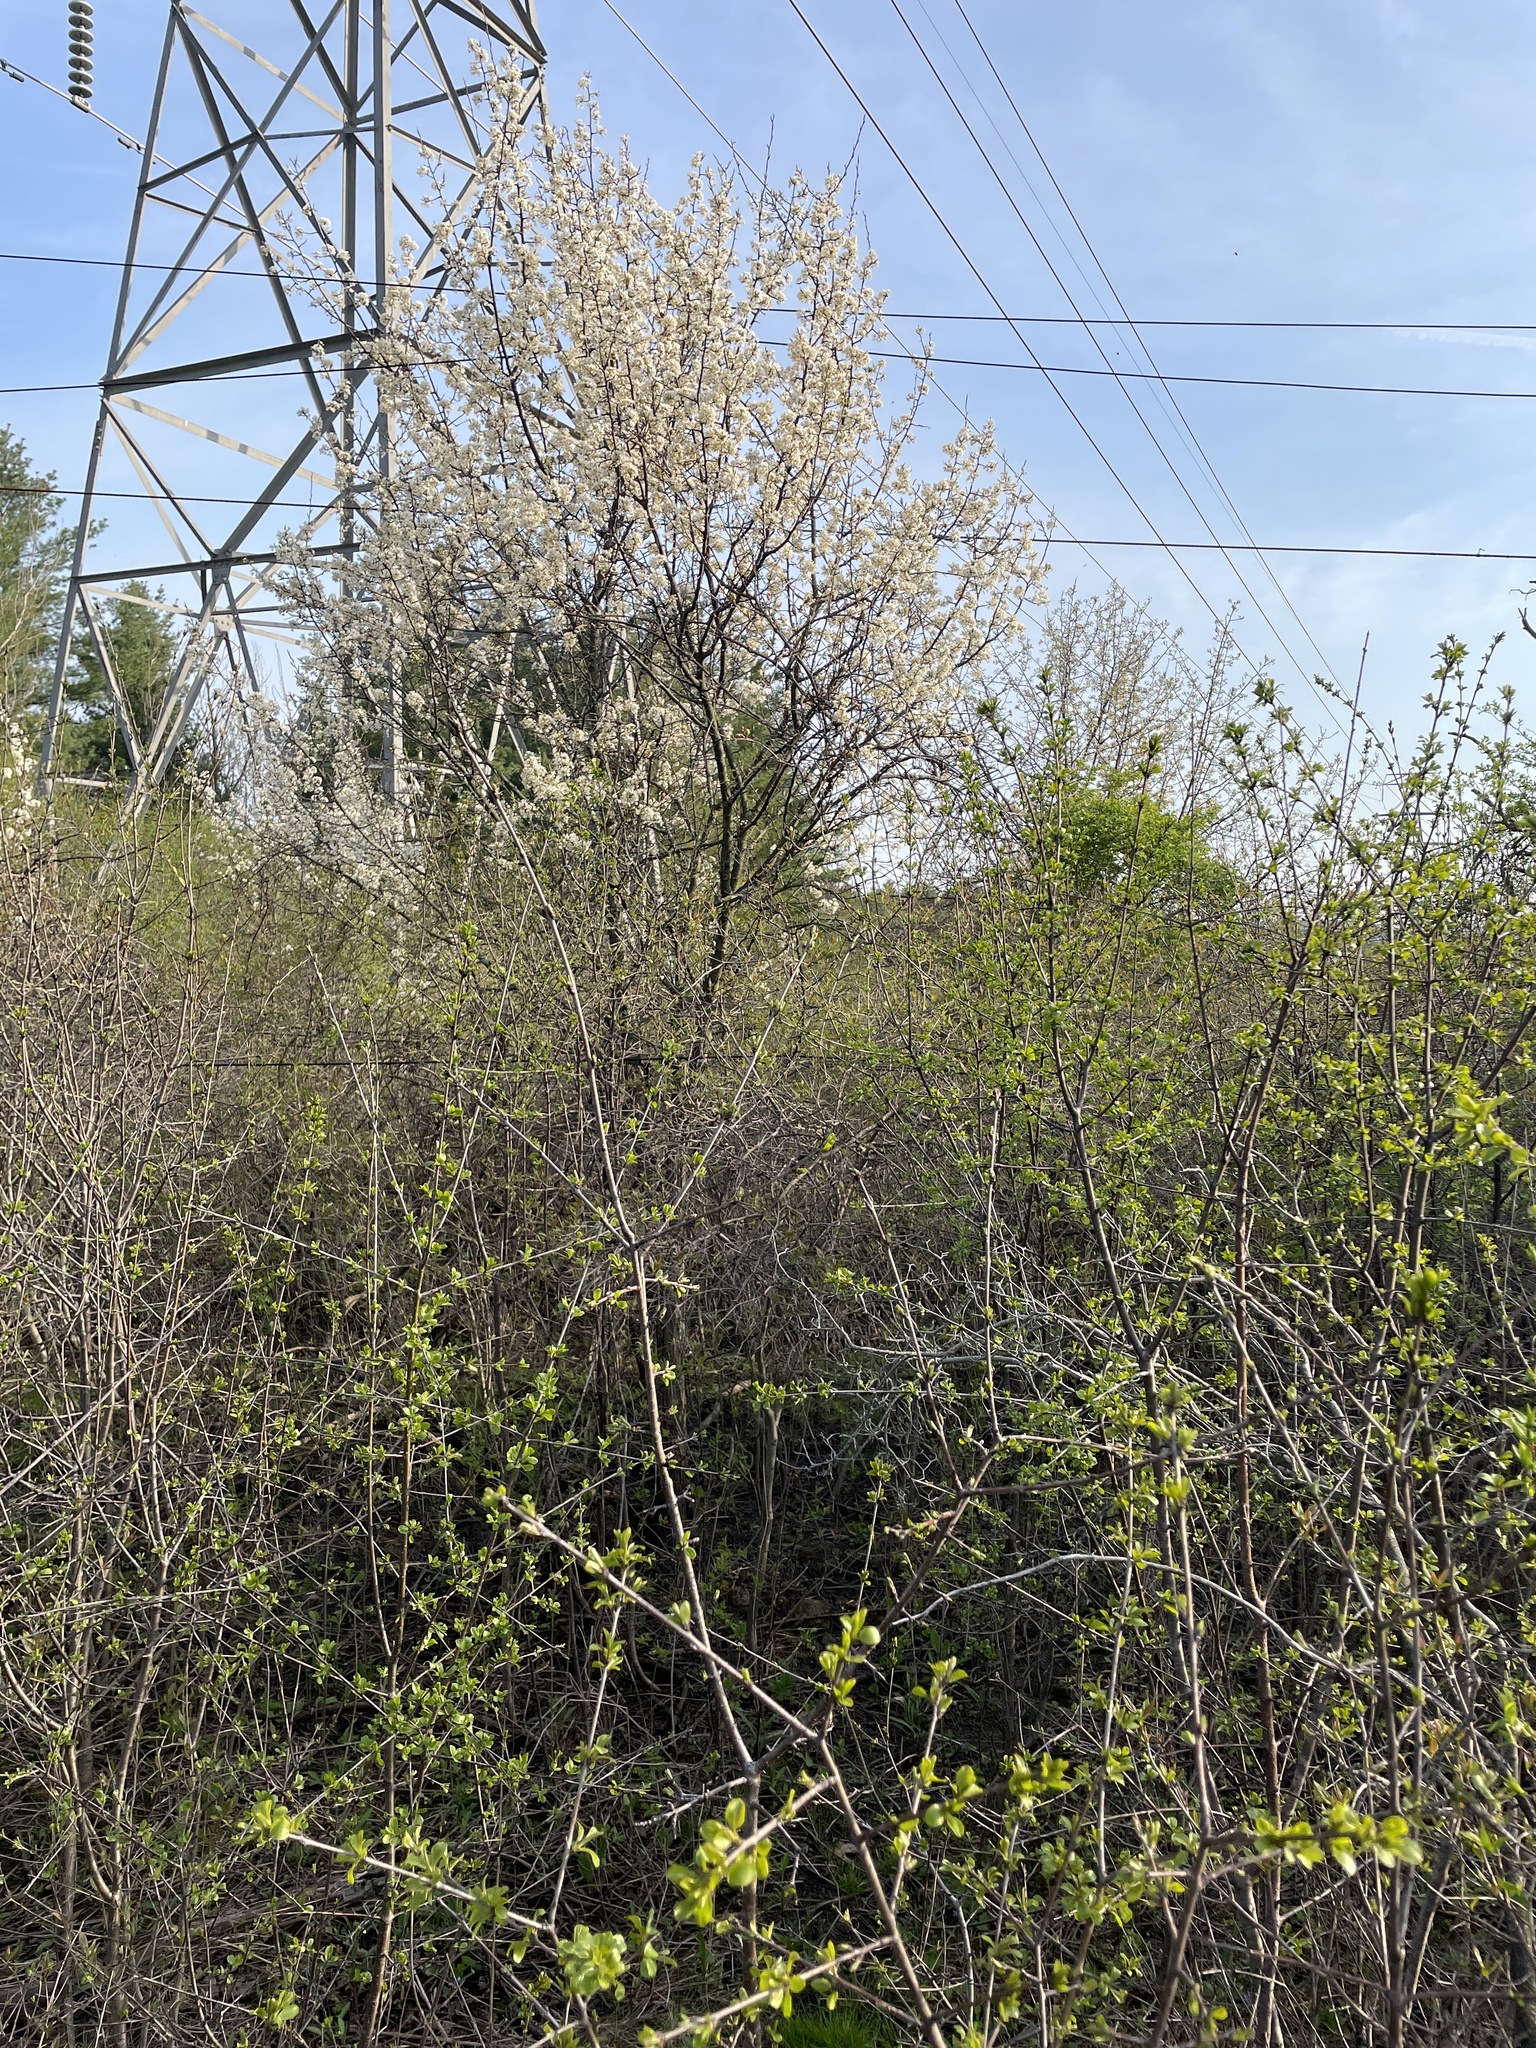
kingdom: Plantae
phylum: Tracheophyta
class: Magnoliopsida
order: Rosales
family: Rosaceae
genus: Prunus
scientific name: Prunus americana
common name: American plum
